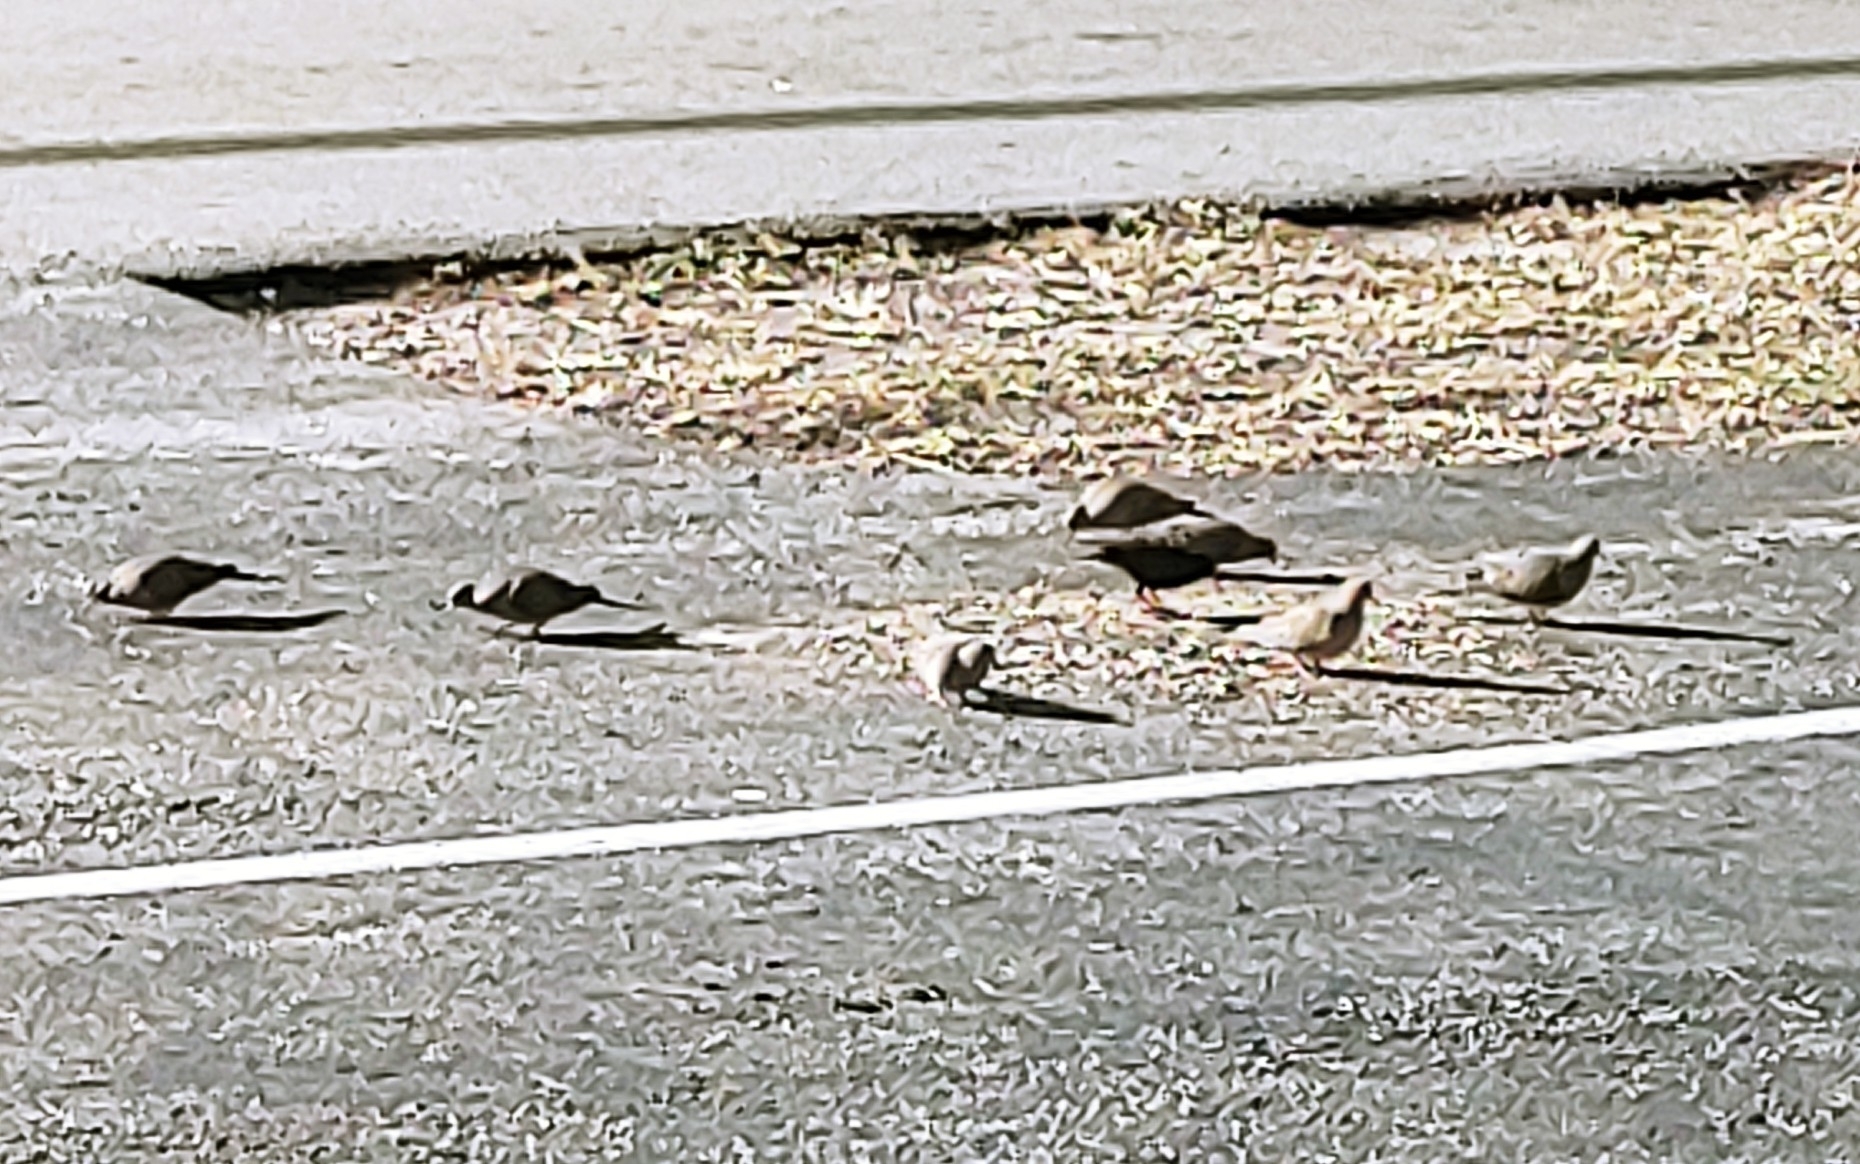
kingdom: Animalia
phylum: Chordata
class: Aves
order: Columbiformes
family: Columbidae
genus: Zenaida
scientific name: Zenaida macroura
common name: Mourning dove
